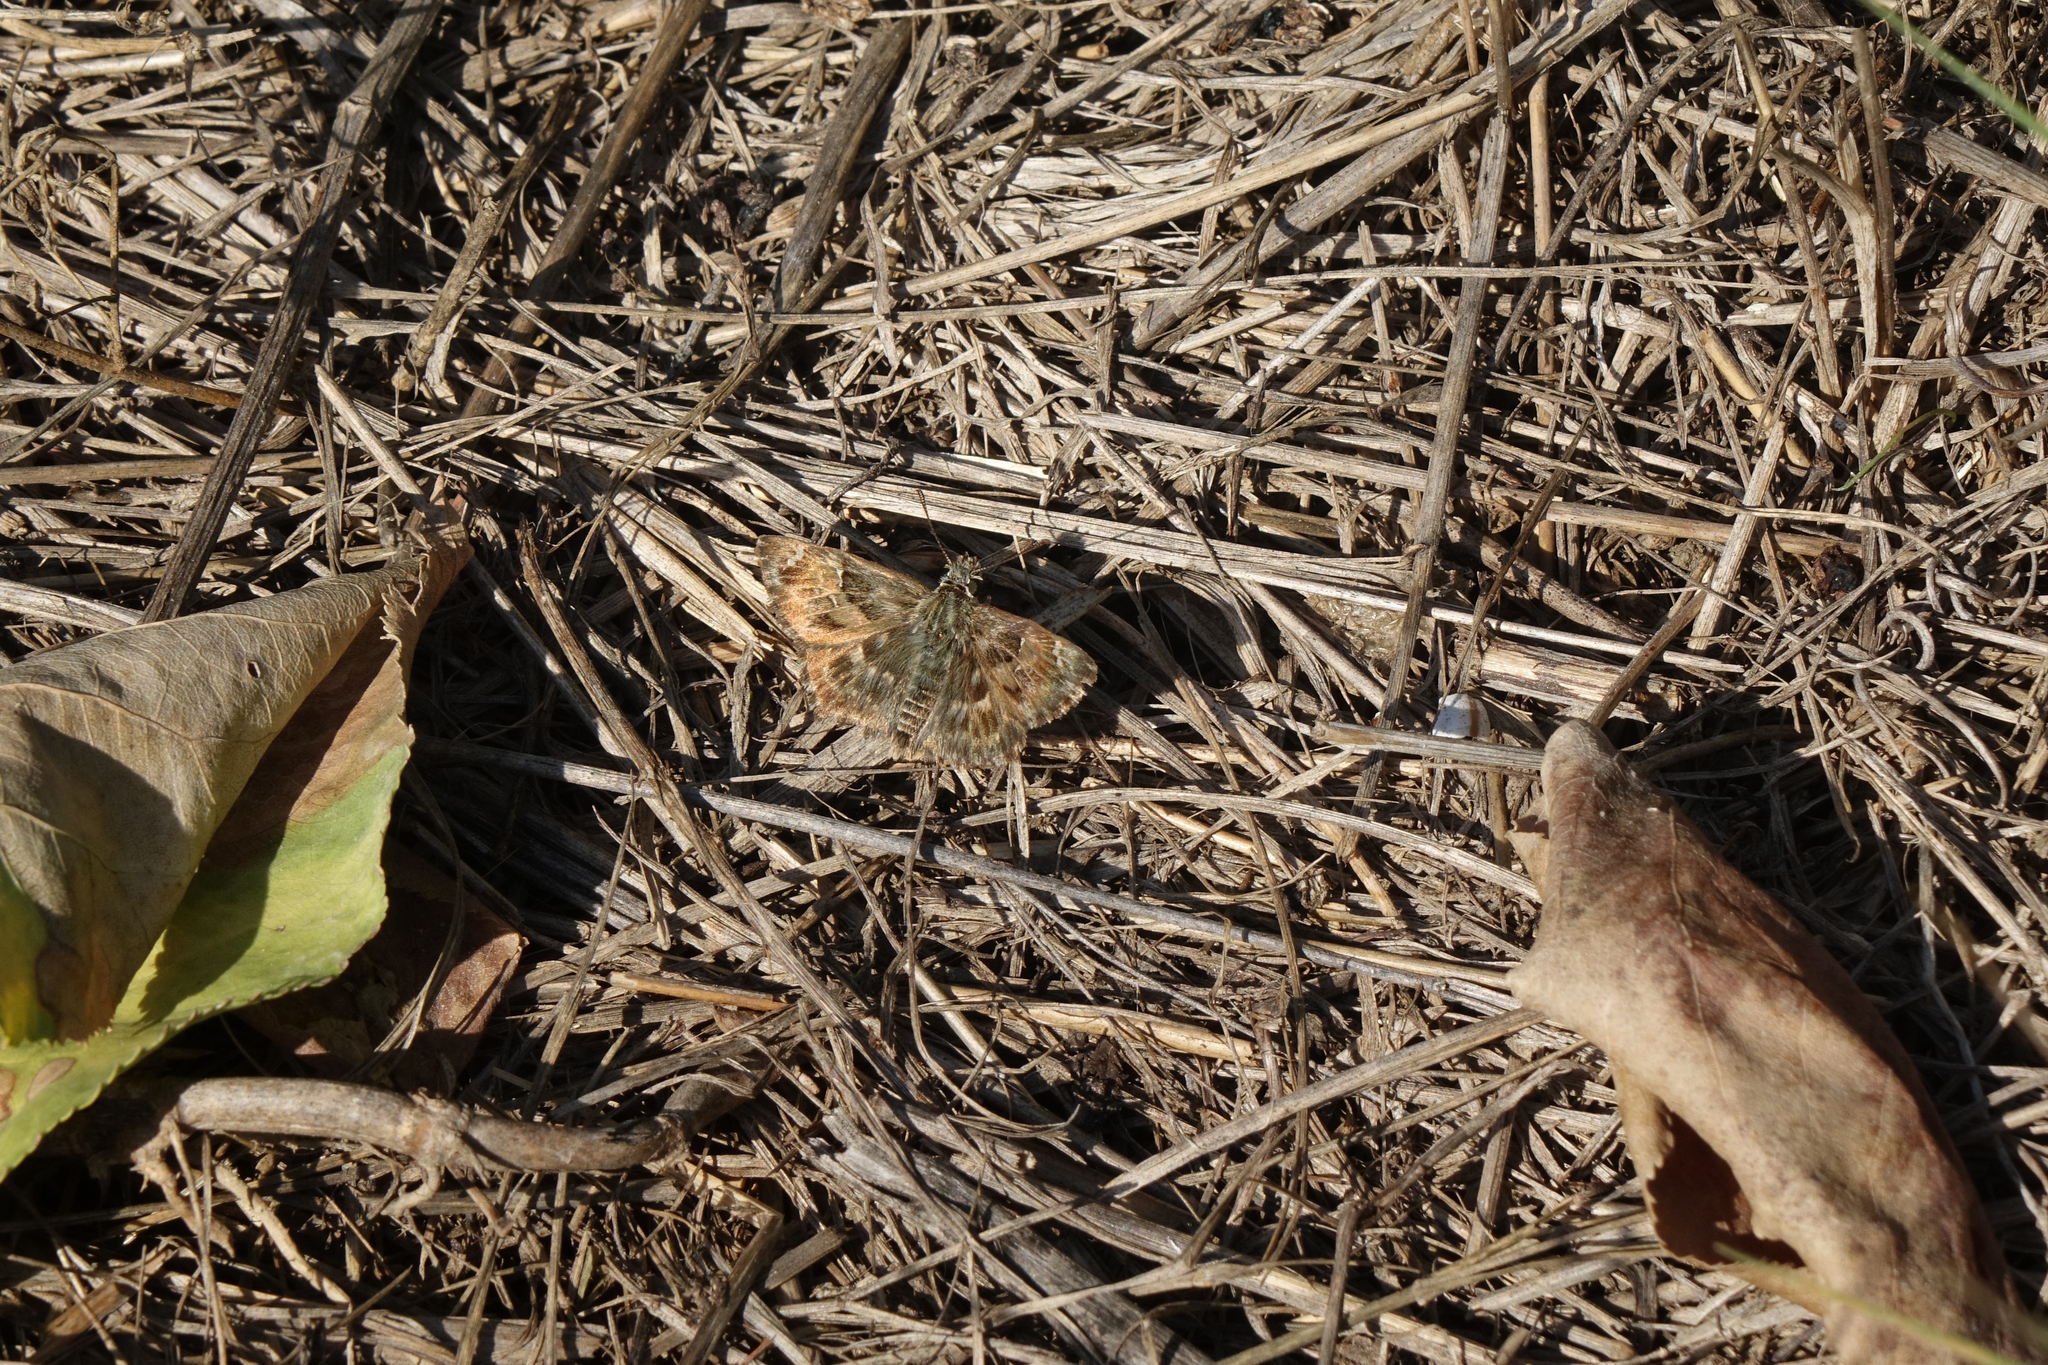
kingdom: Animalia
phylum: Arthropoda
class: Insecta
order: Lepidoptera
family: Hesperiidae
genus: Carcharodus
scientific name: Carcharodus alceae
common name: Mallow skipper
